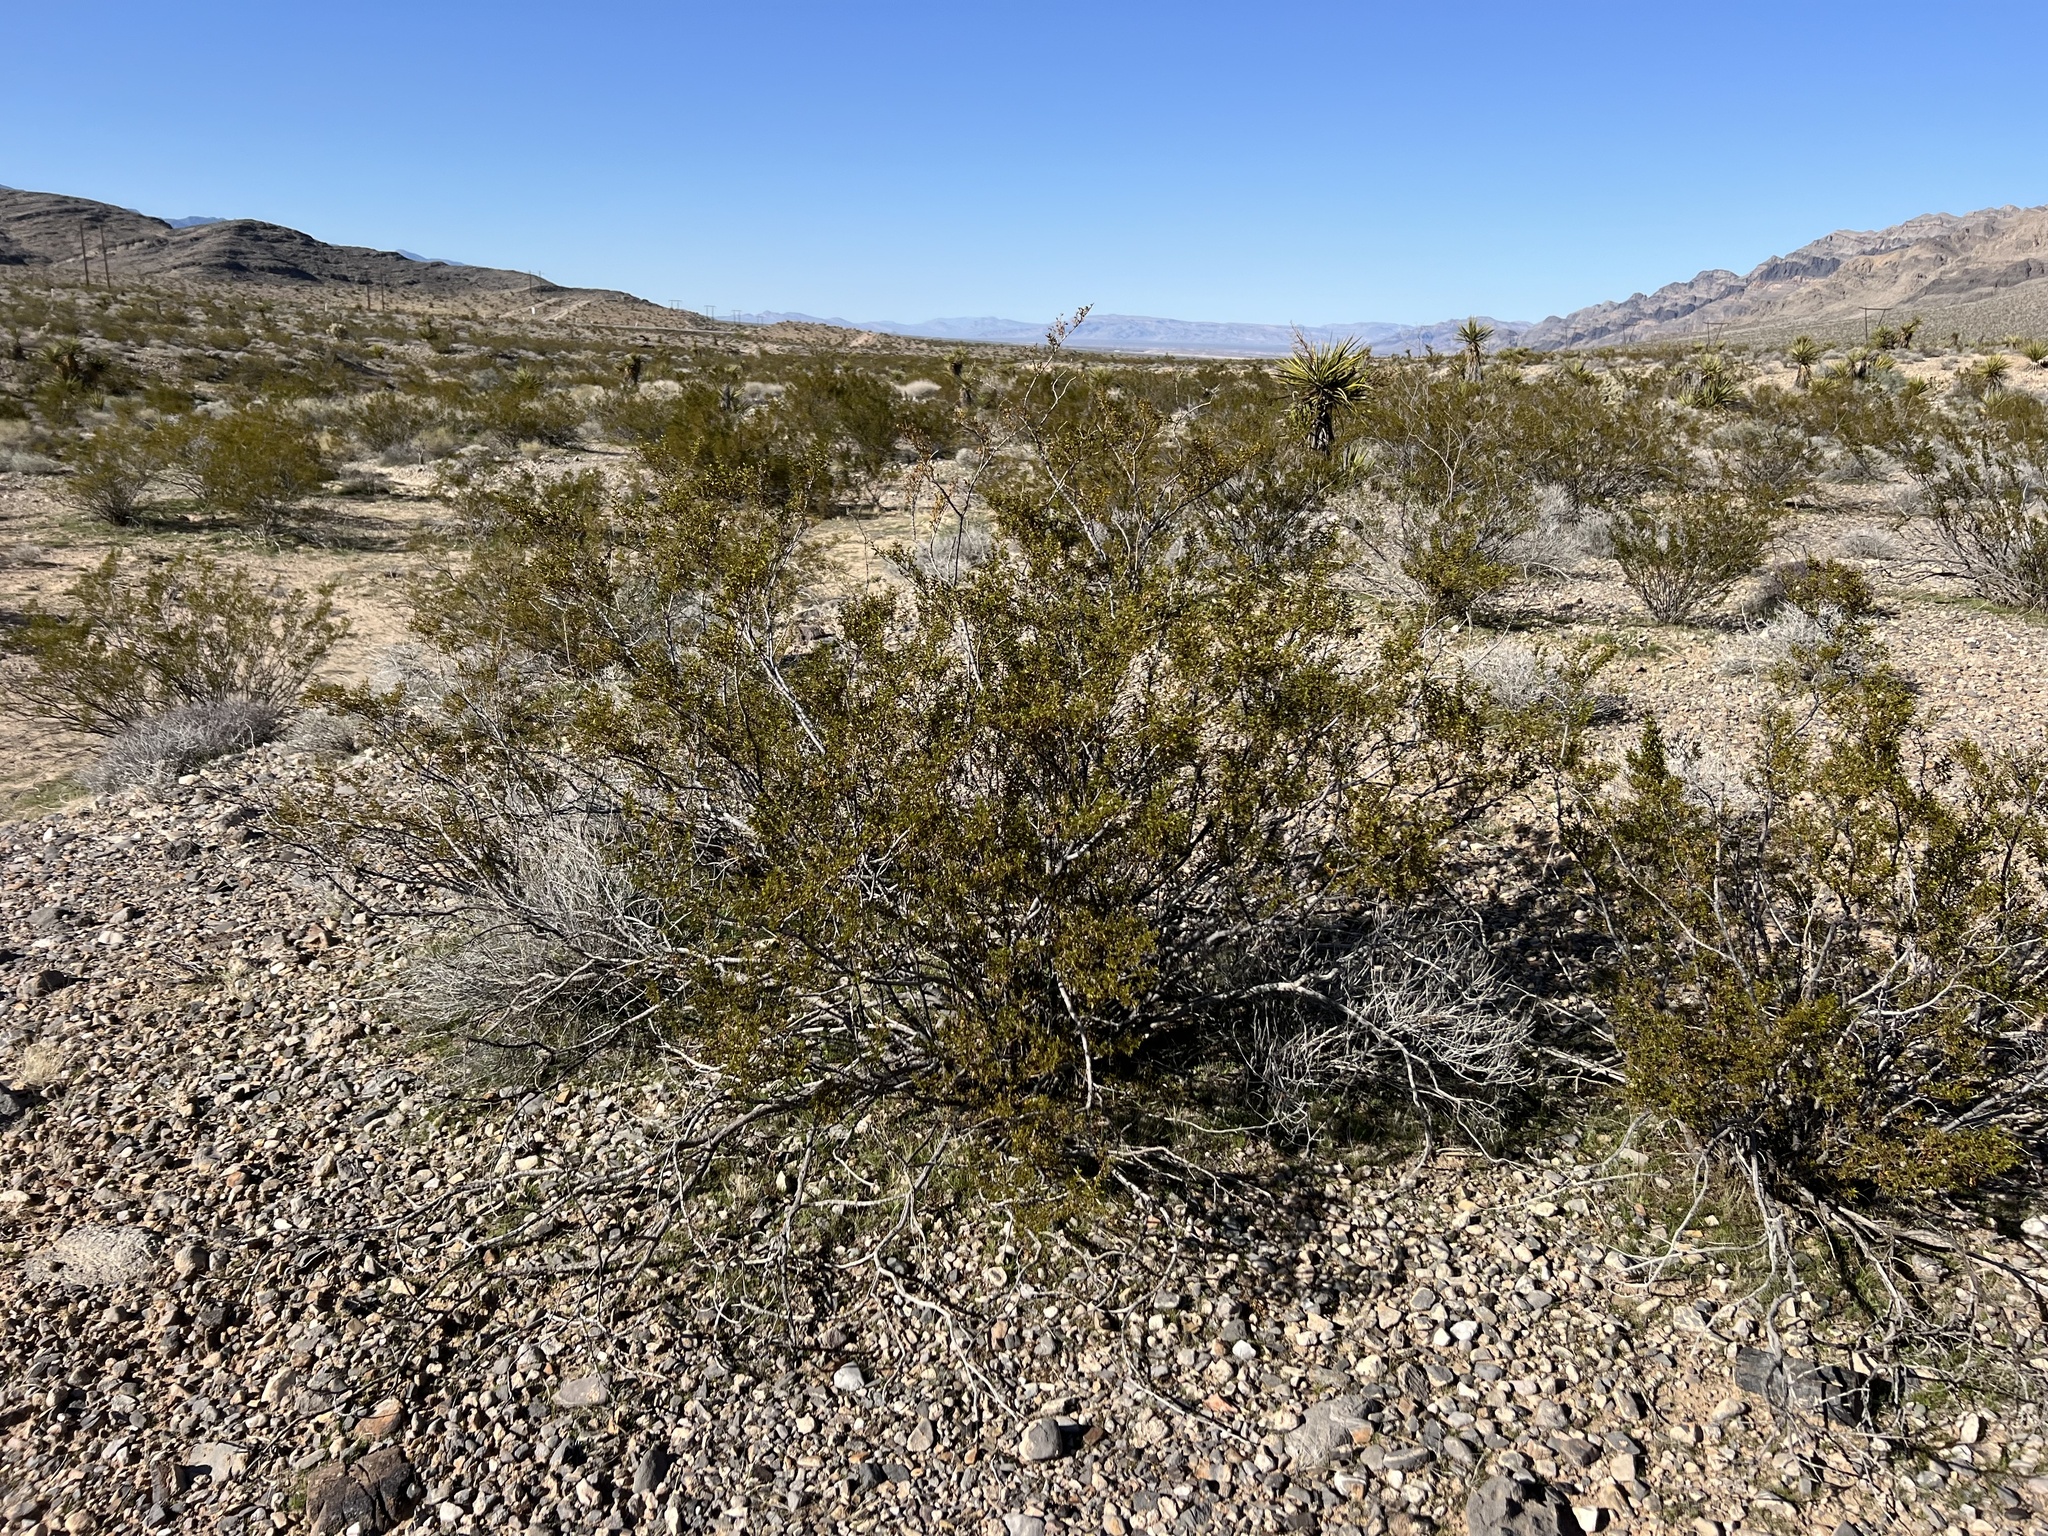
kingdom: Plantae
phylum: Tracheophyta
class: Magnoliopsida
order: Zygophyllales
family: Zygophyllaceae
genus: Larrea
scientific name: Larrea tridentata
